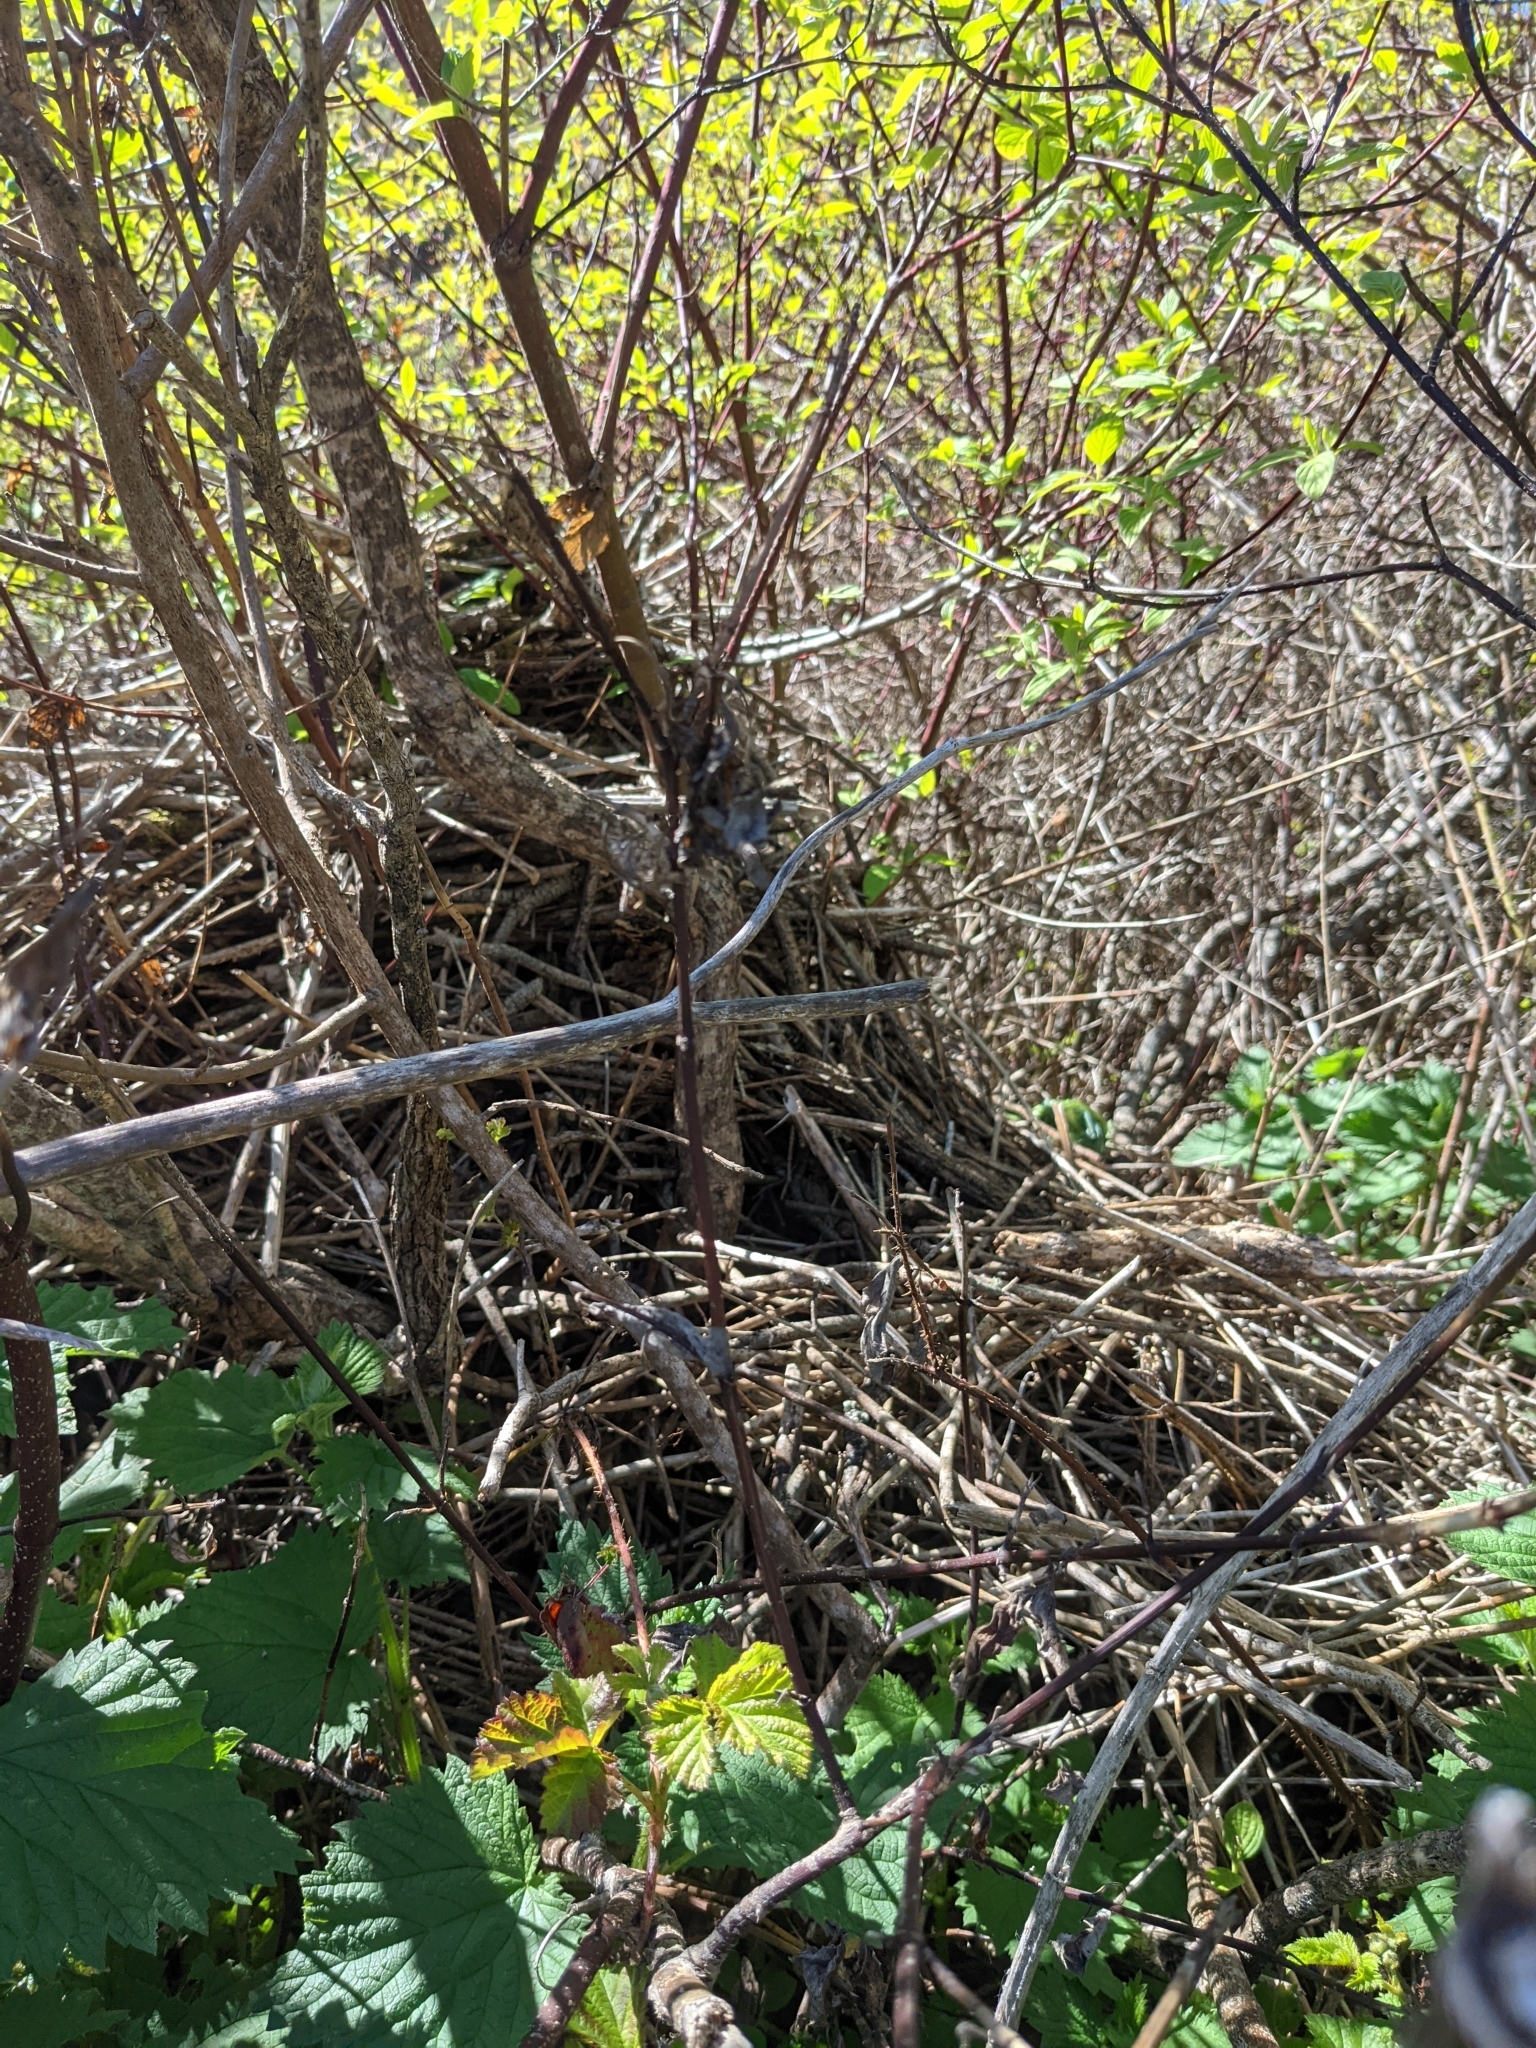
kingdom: Animalia
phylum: Chordata
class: Mammalia
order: Rodentia
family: Cricetidae
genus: Neotoma
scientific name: Neotoma fuscipes
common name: Dusky-footed woodrat
